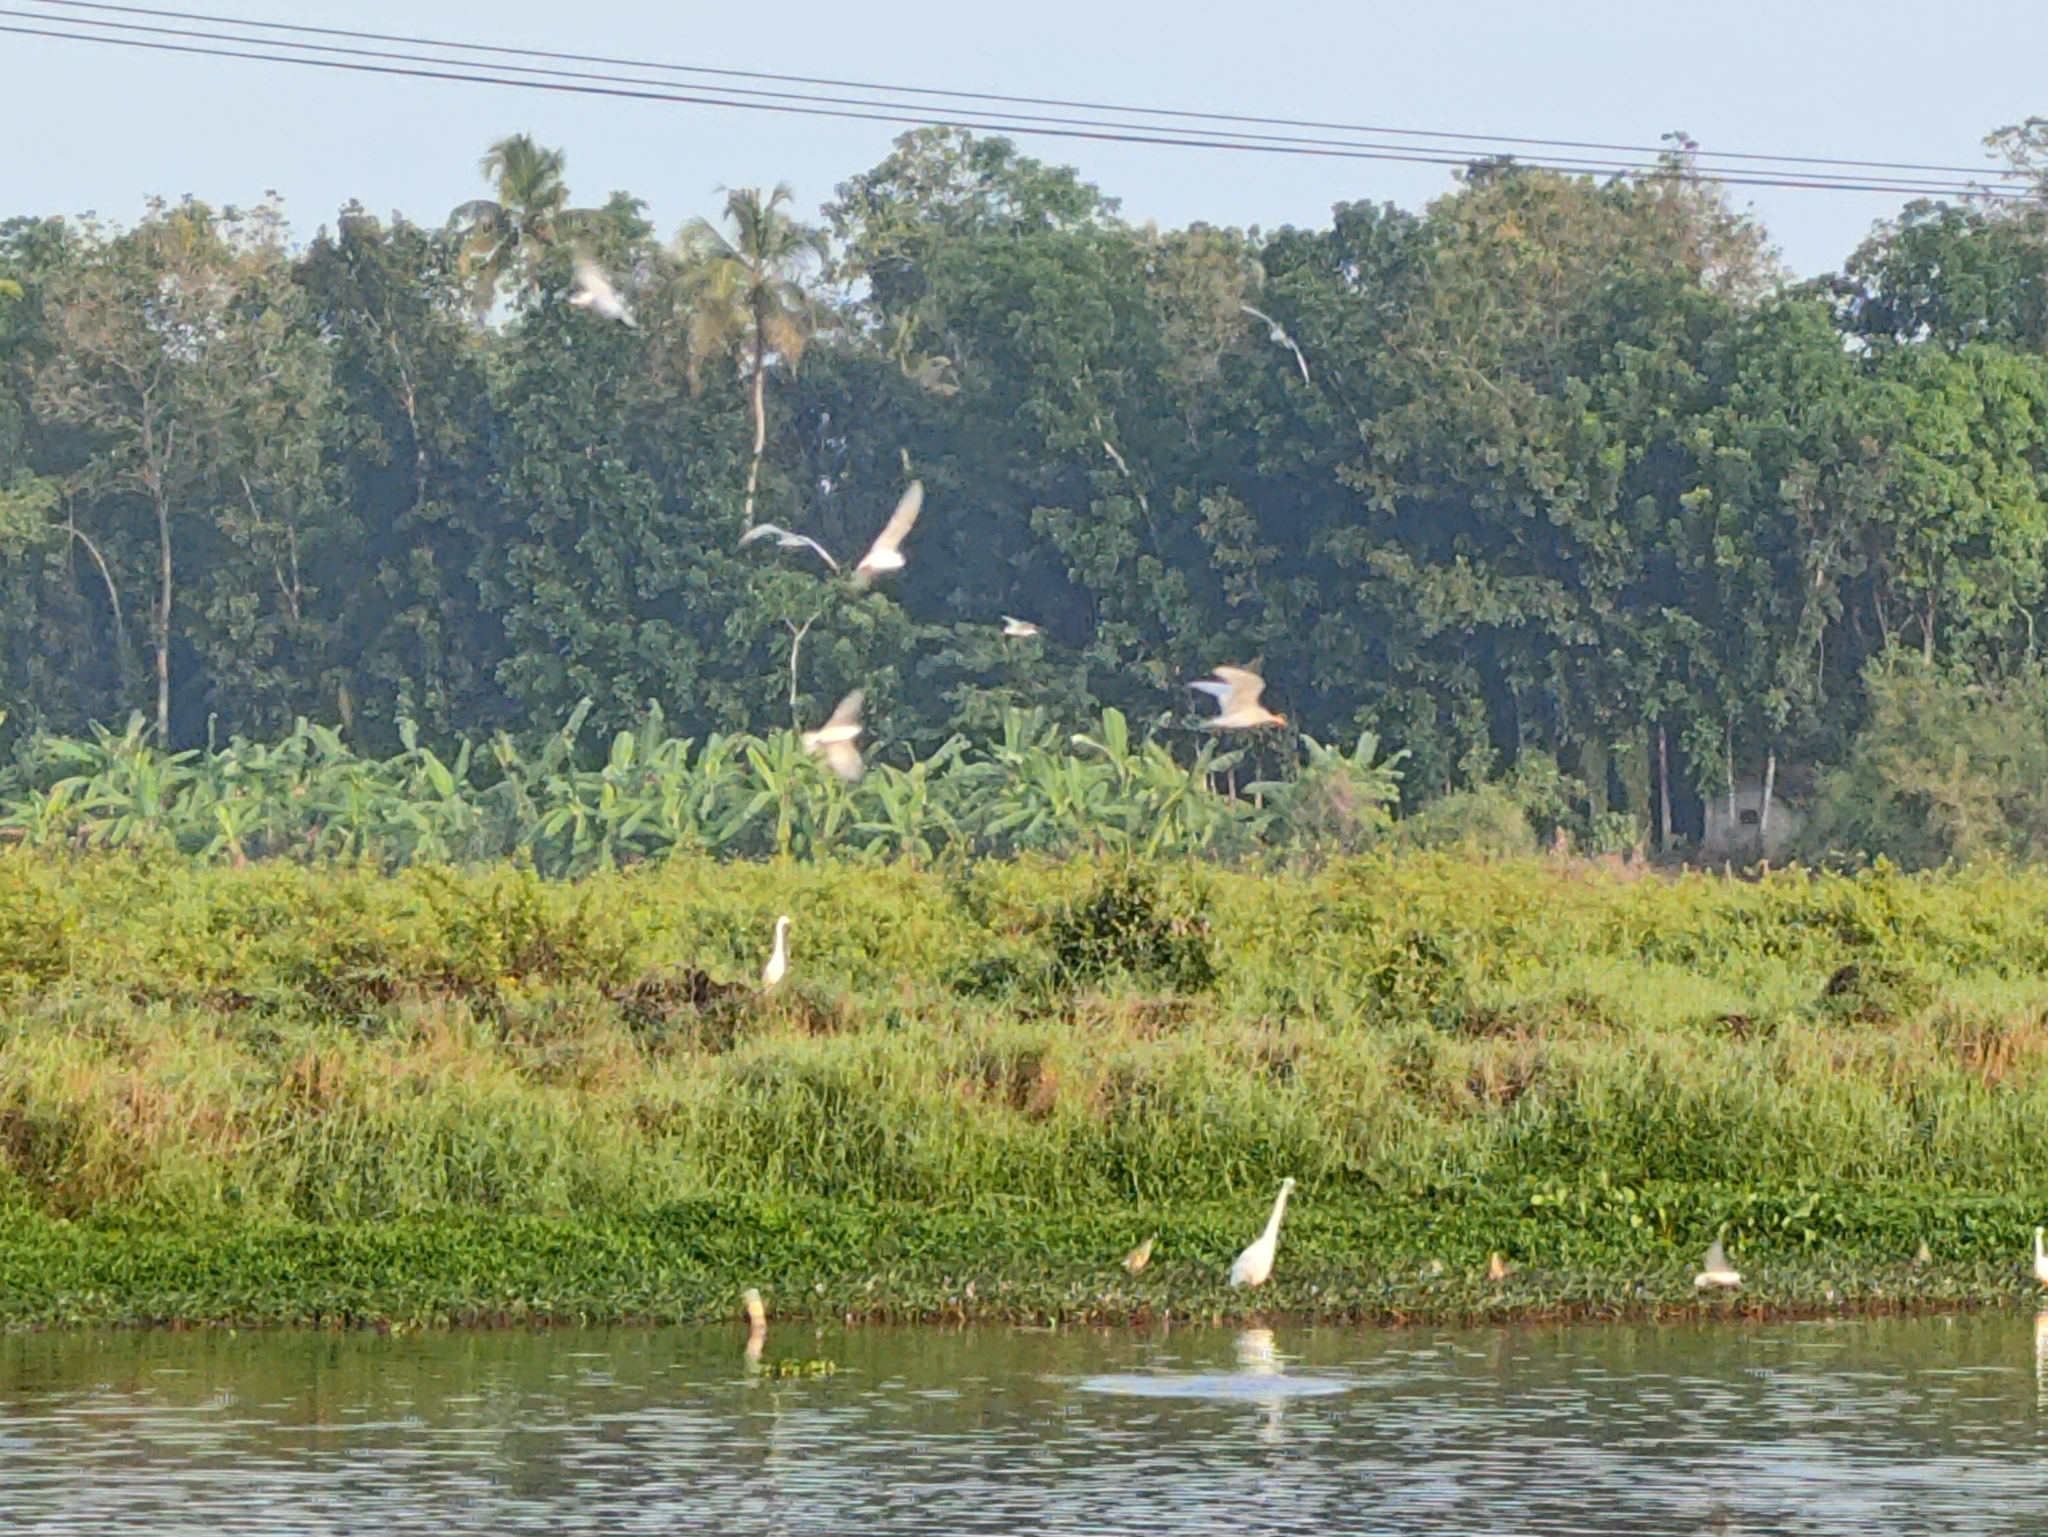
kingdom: Animalia
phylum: Chordata
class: Aves
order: Charadriiformes
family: Laridae
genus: Sterna
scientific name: Sterna aurantia
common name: River tern
